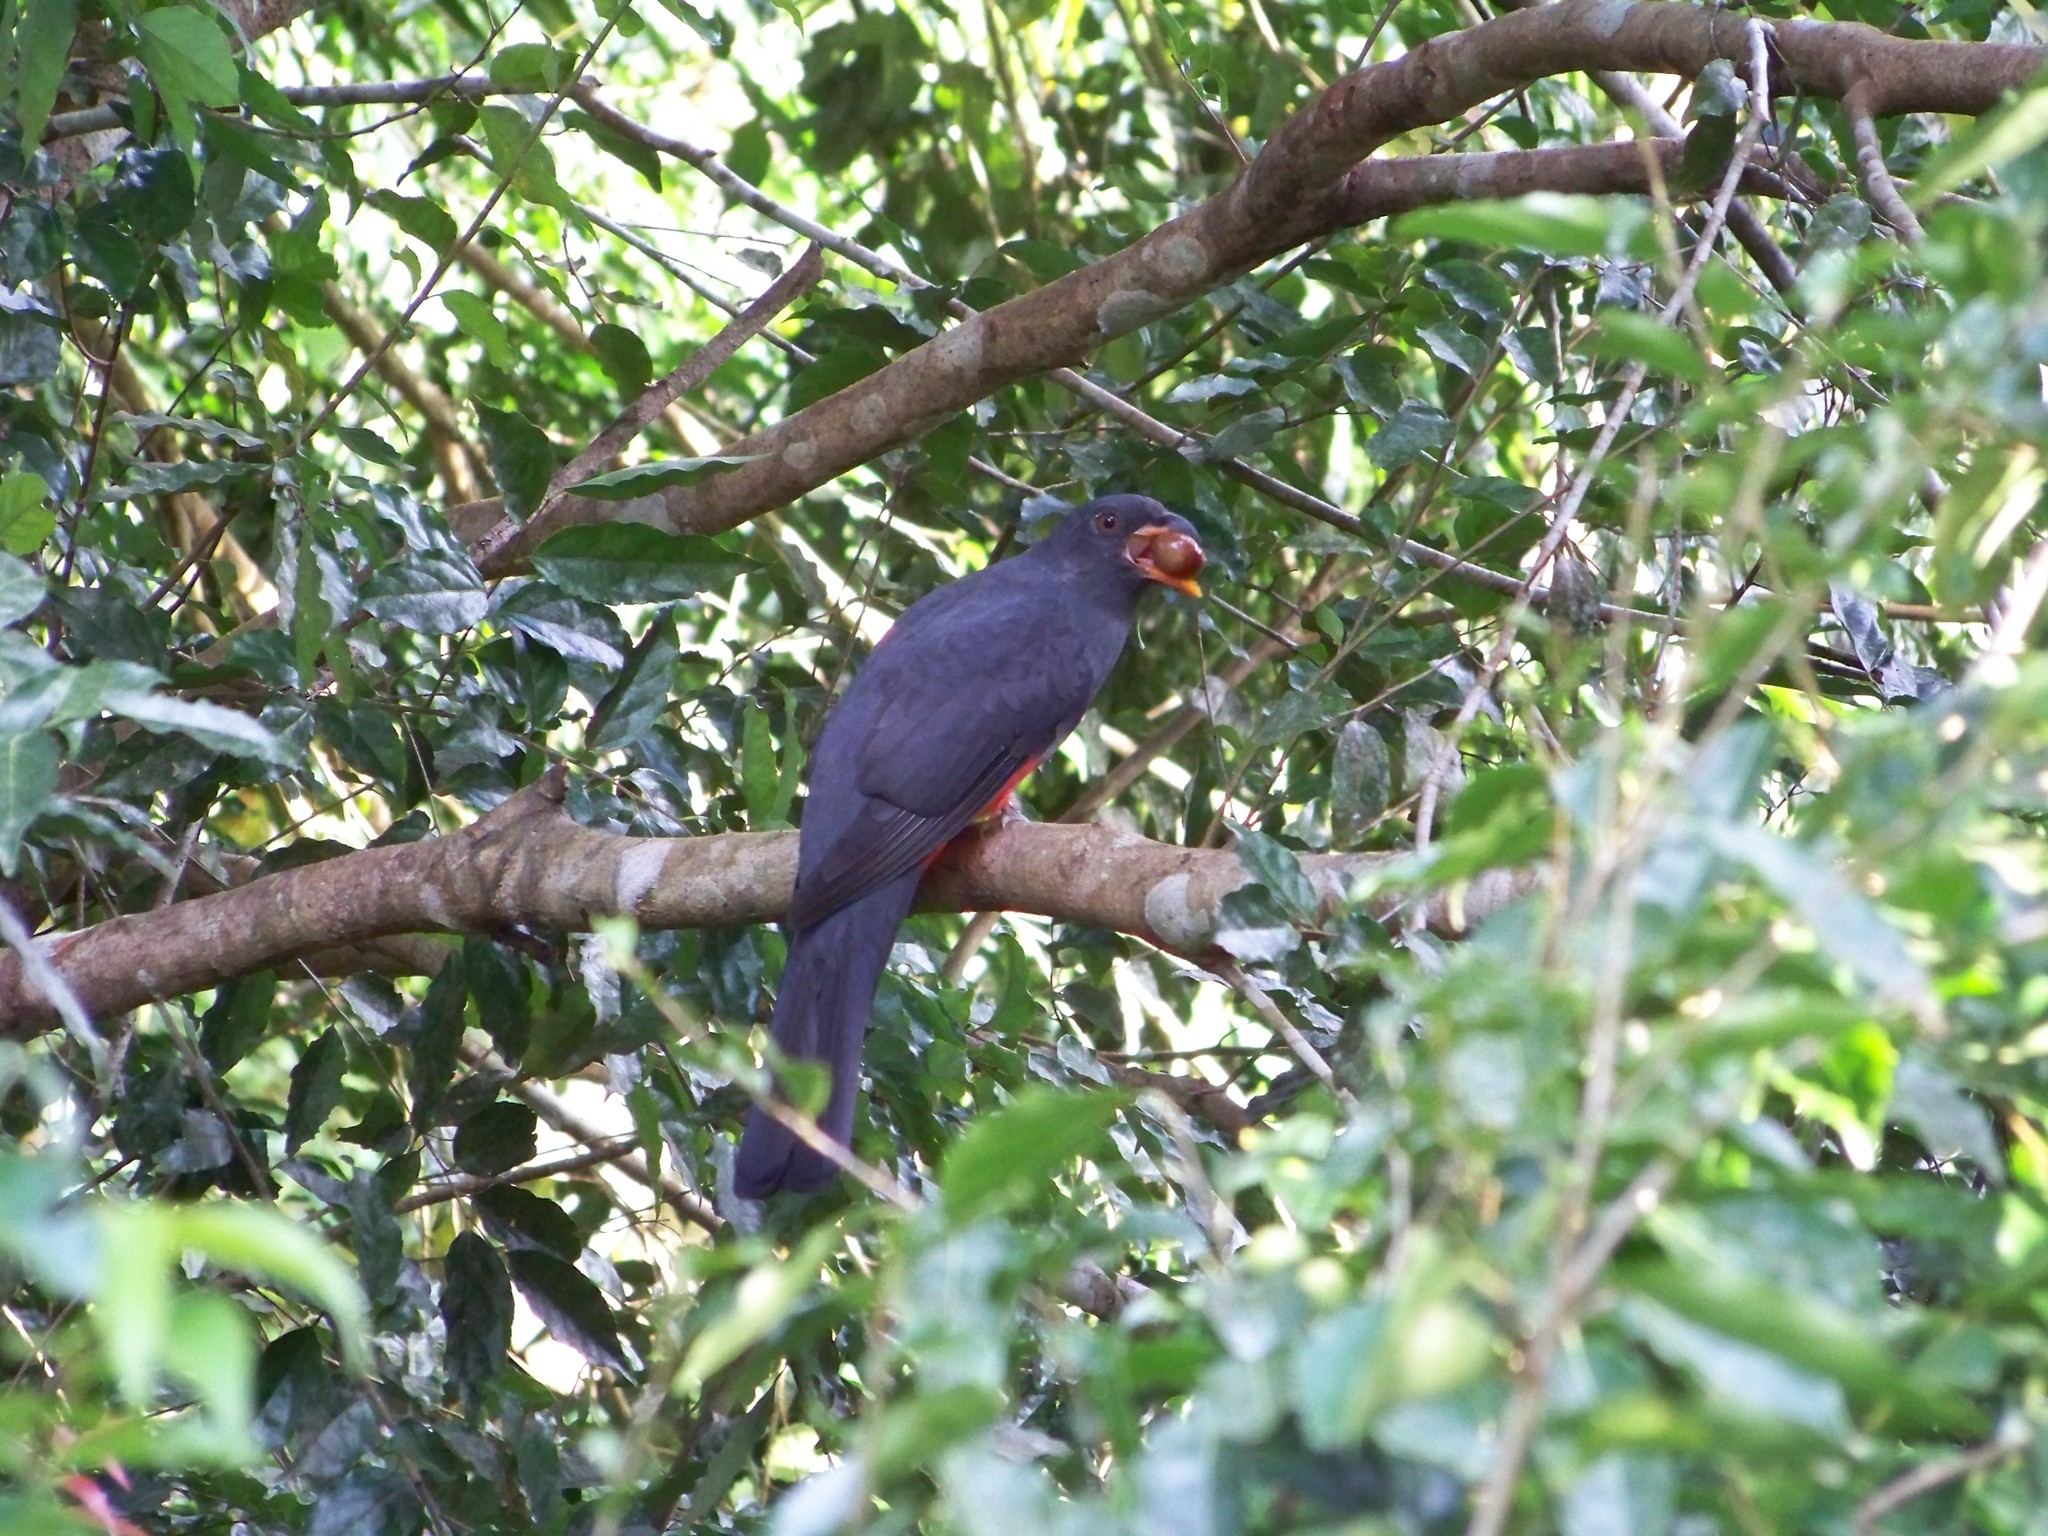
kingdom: Animalia
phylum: Chordata
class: Aves
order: Trogoniformes
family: Trogonidae
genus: Trogon
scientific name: Trogon massena
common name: Slaty-tailed trogon
